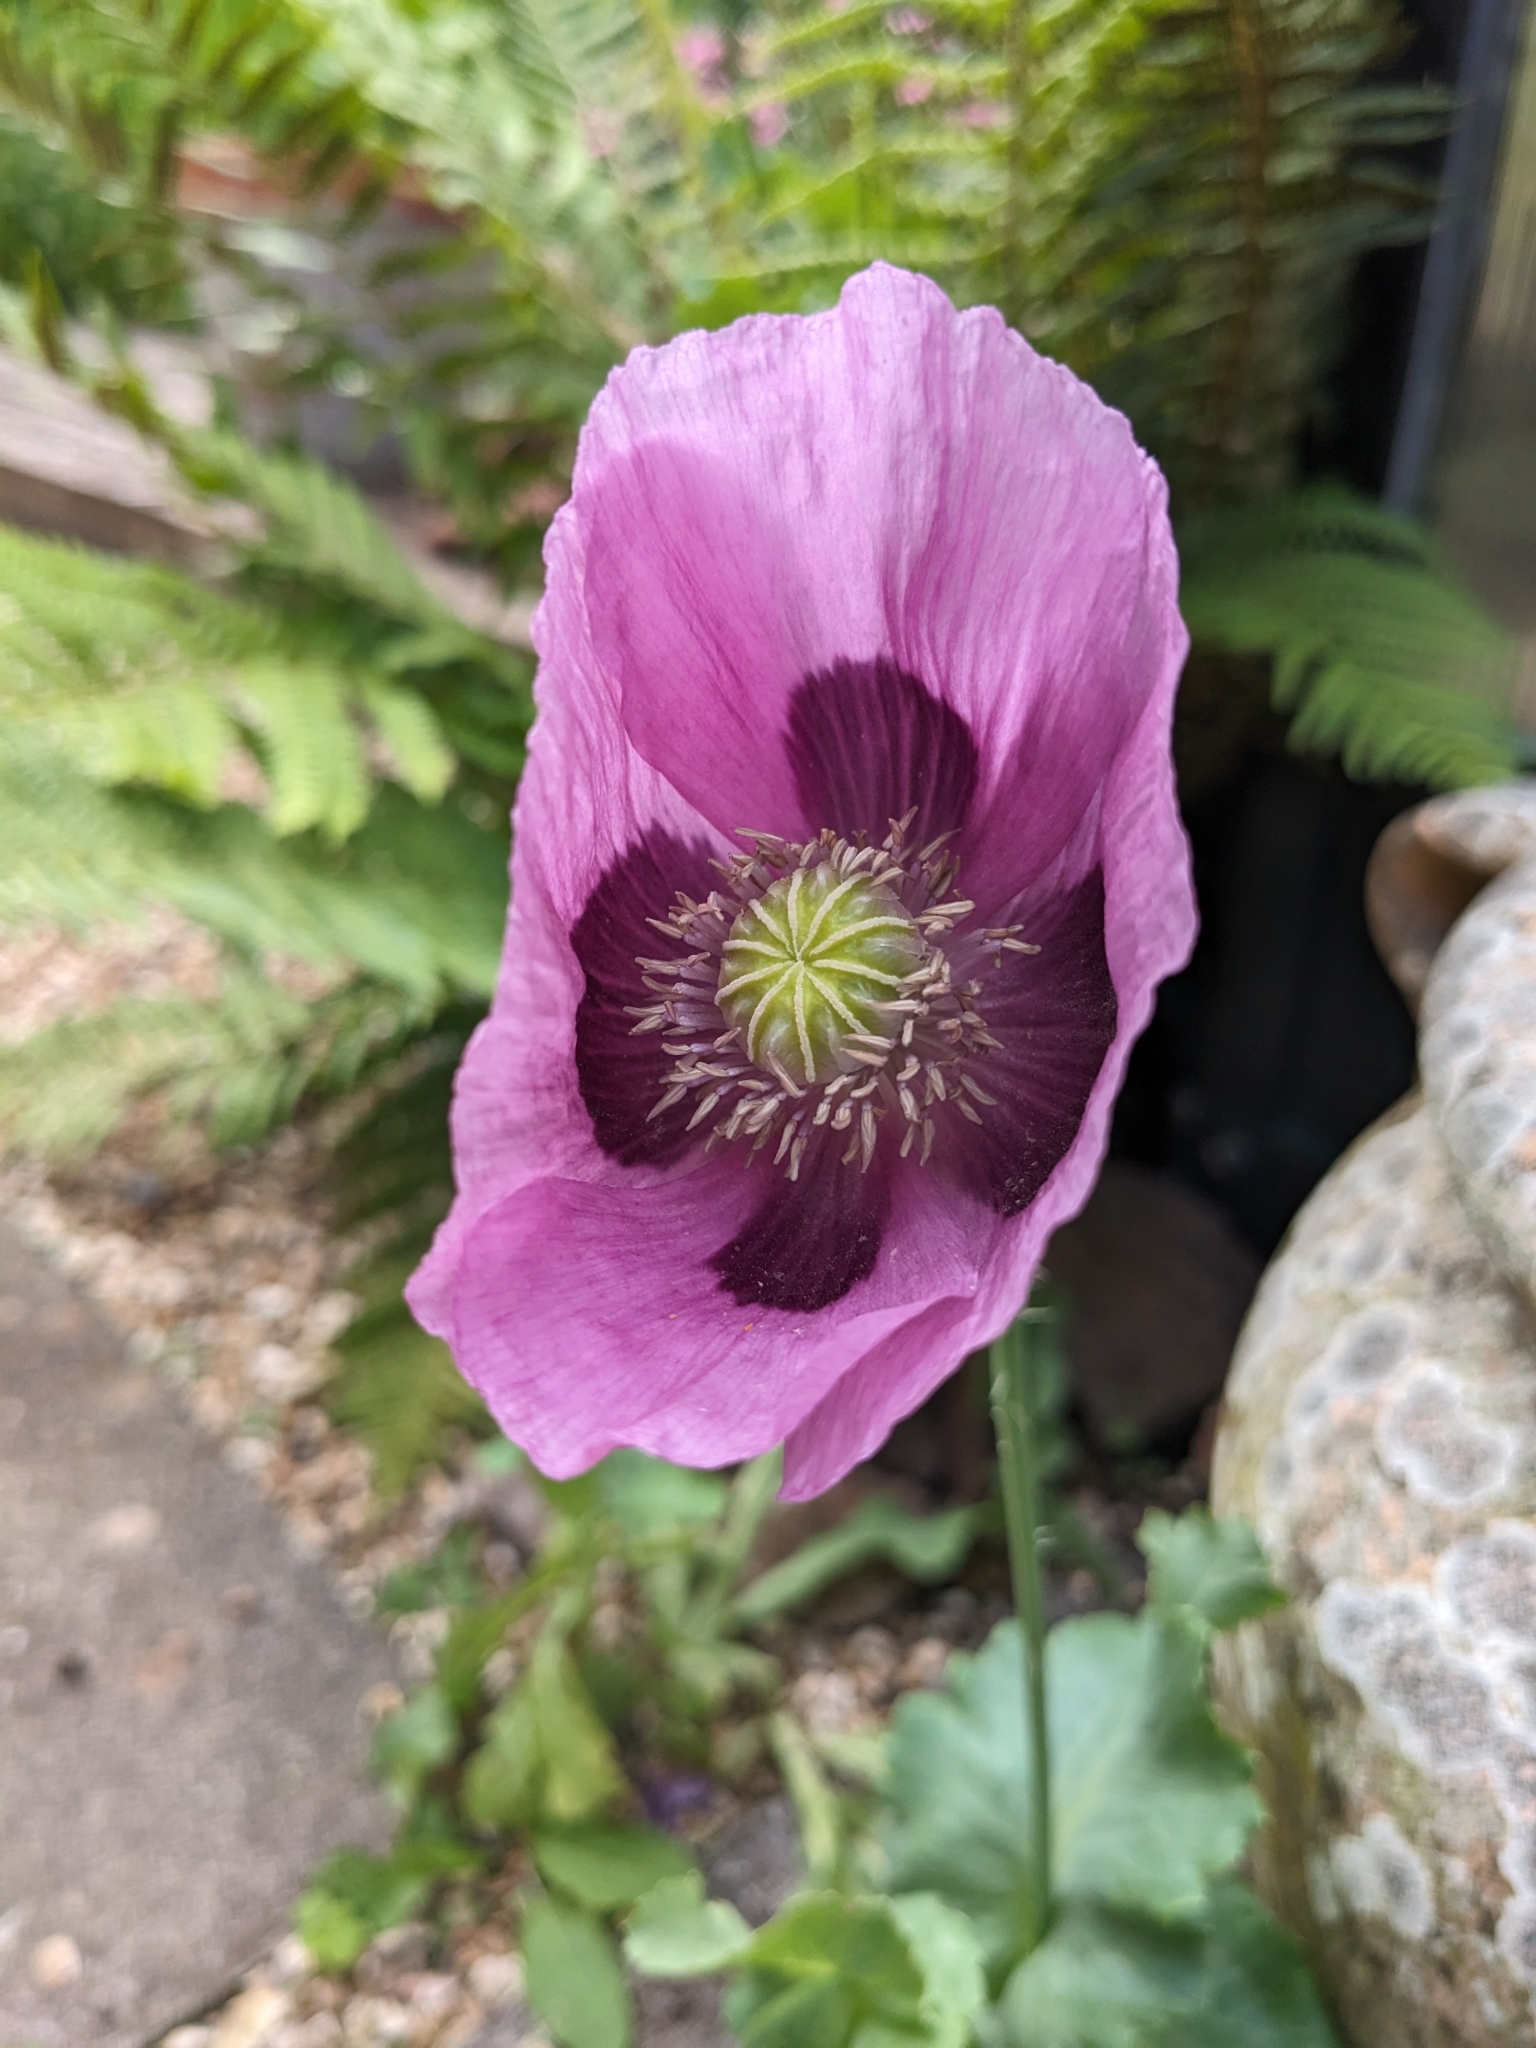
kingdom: Plantae
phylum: Tracheophyta
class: Magnoliopsida
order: Ranunculales
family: Papaveraceae
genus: Papaver
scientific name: Papaver somniferum
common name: Opium poppy
